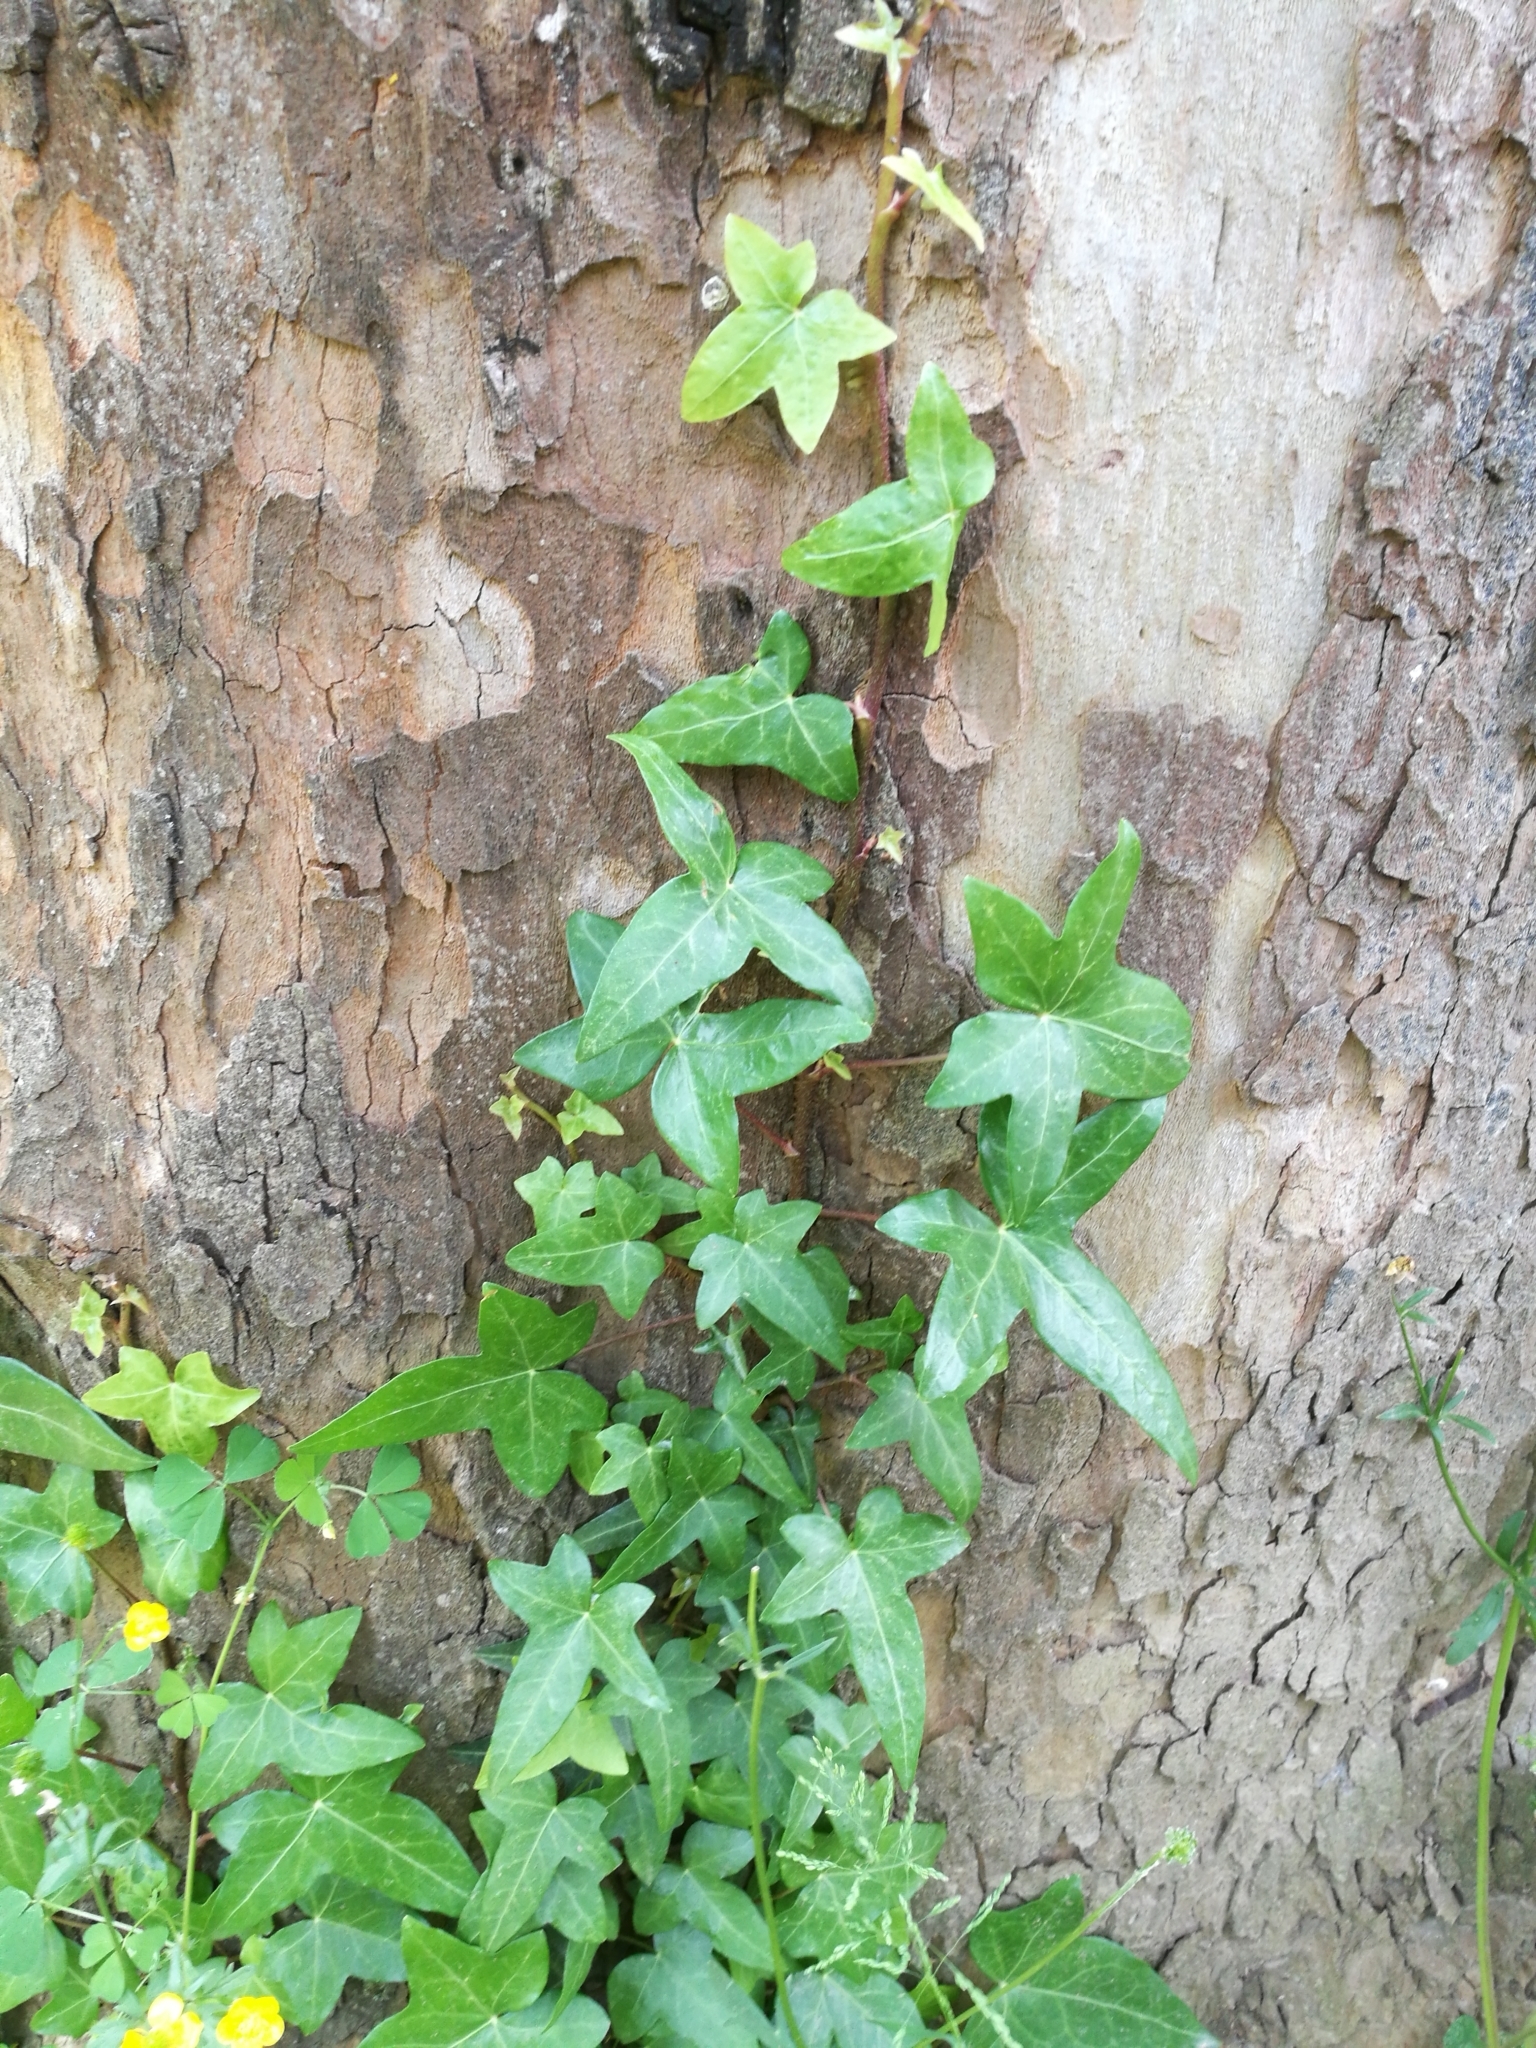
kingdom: Plantae
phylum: Tracheophyta
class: Magnoliopsida
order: Apiales
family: Araliaceae
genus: Hedera
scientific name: Hedera helix
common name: Ivy
